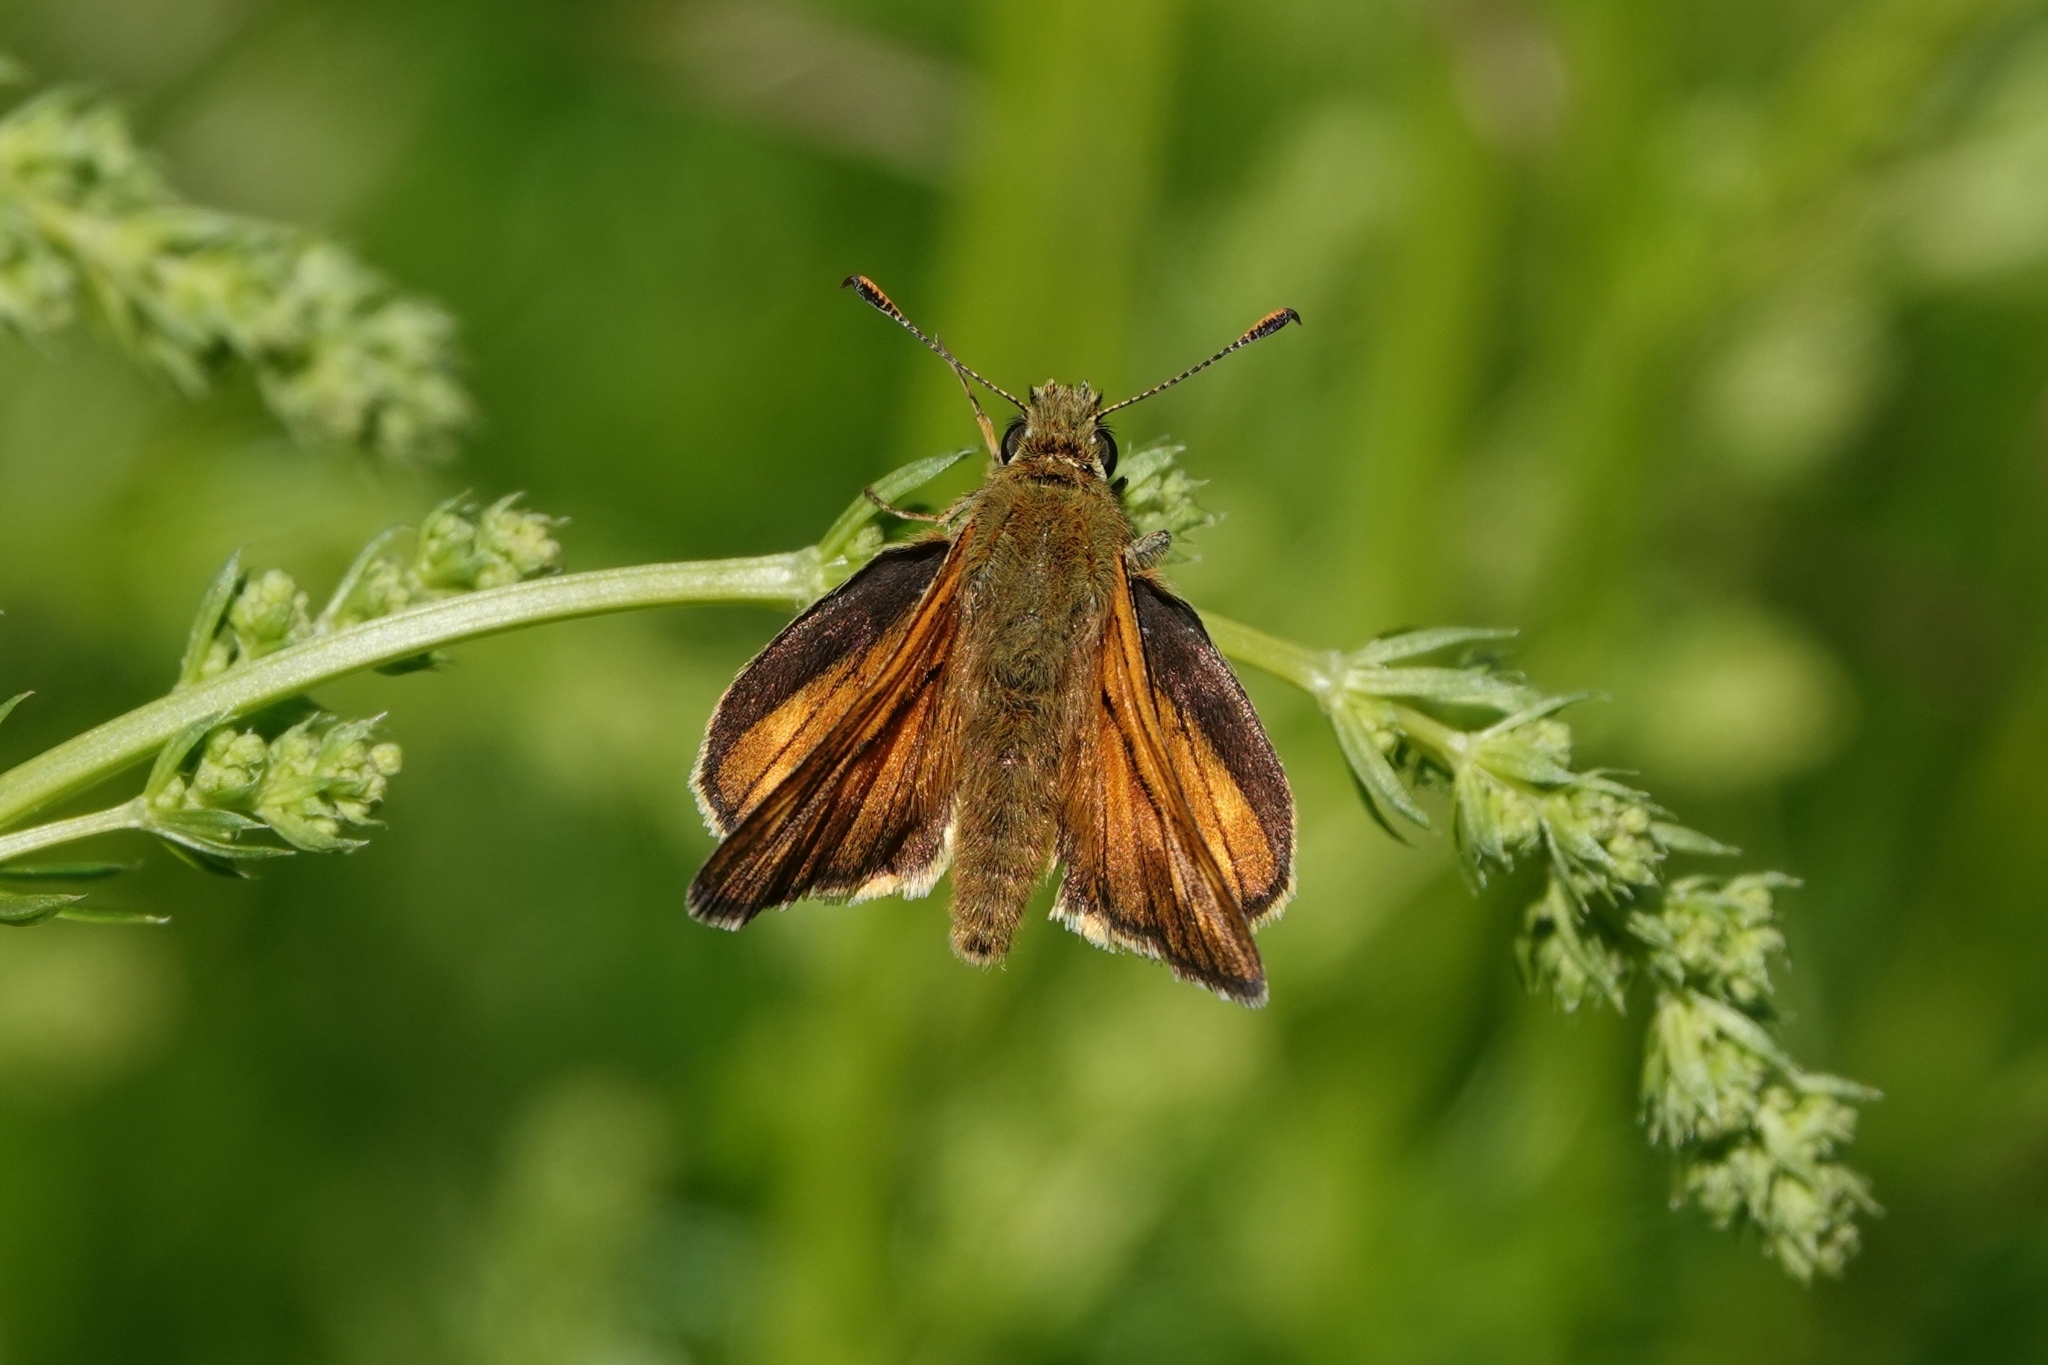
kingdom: Animalia
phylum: Arthropoda
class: Insecta
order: Lepidoptera
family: Hesperiidae
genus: Ochlodes
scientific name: Ochlodes venata
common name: Large skipper
